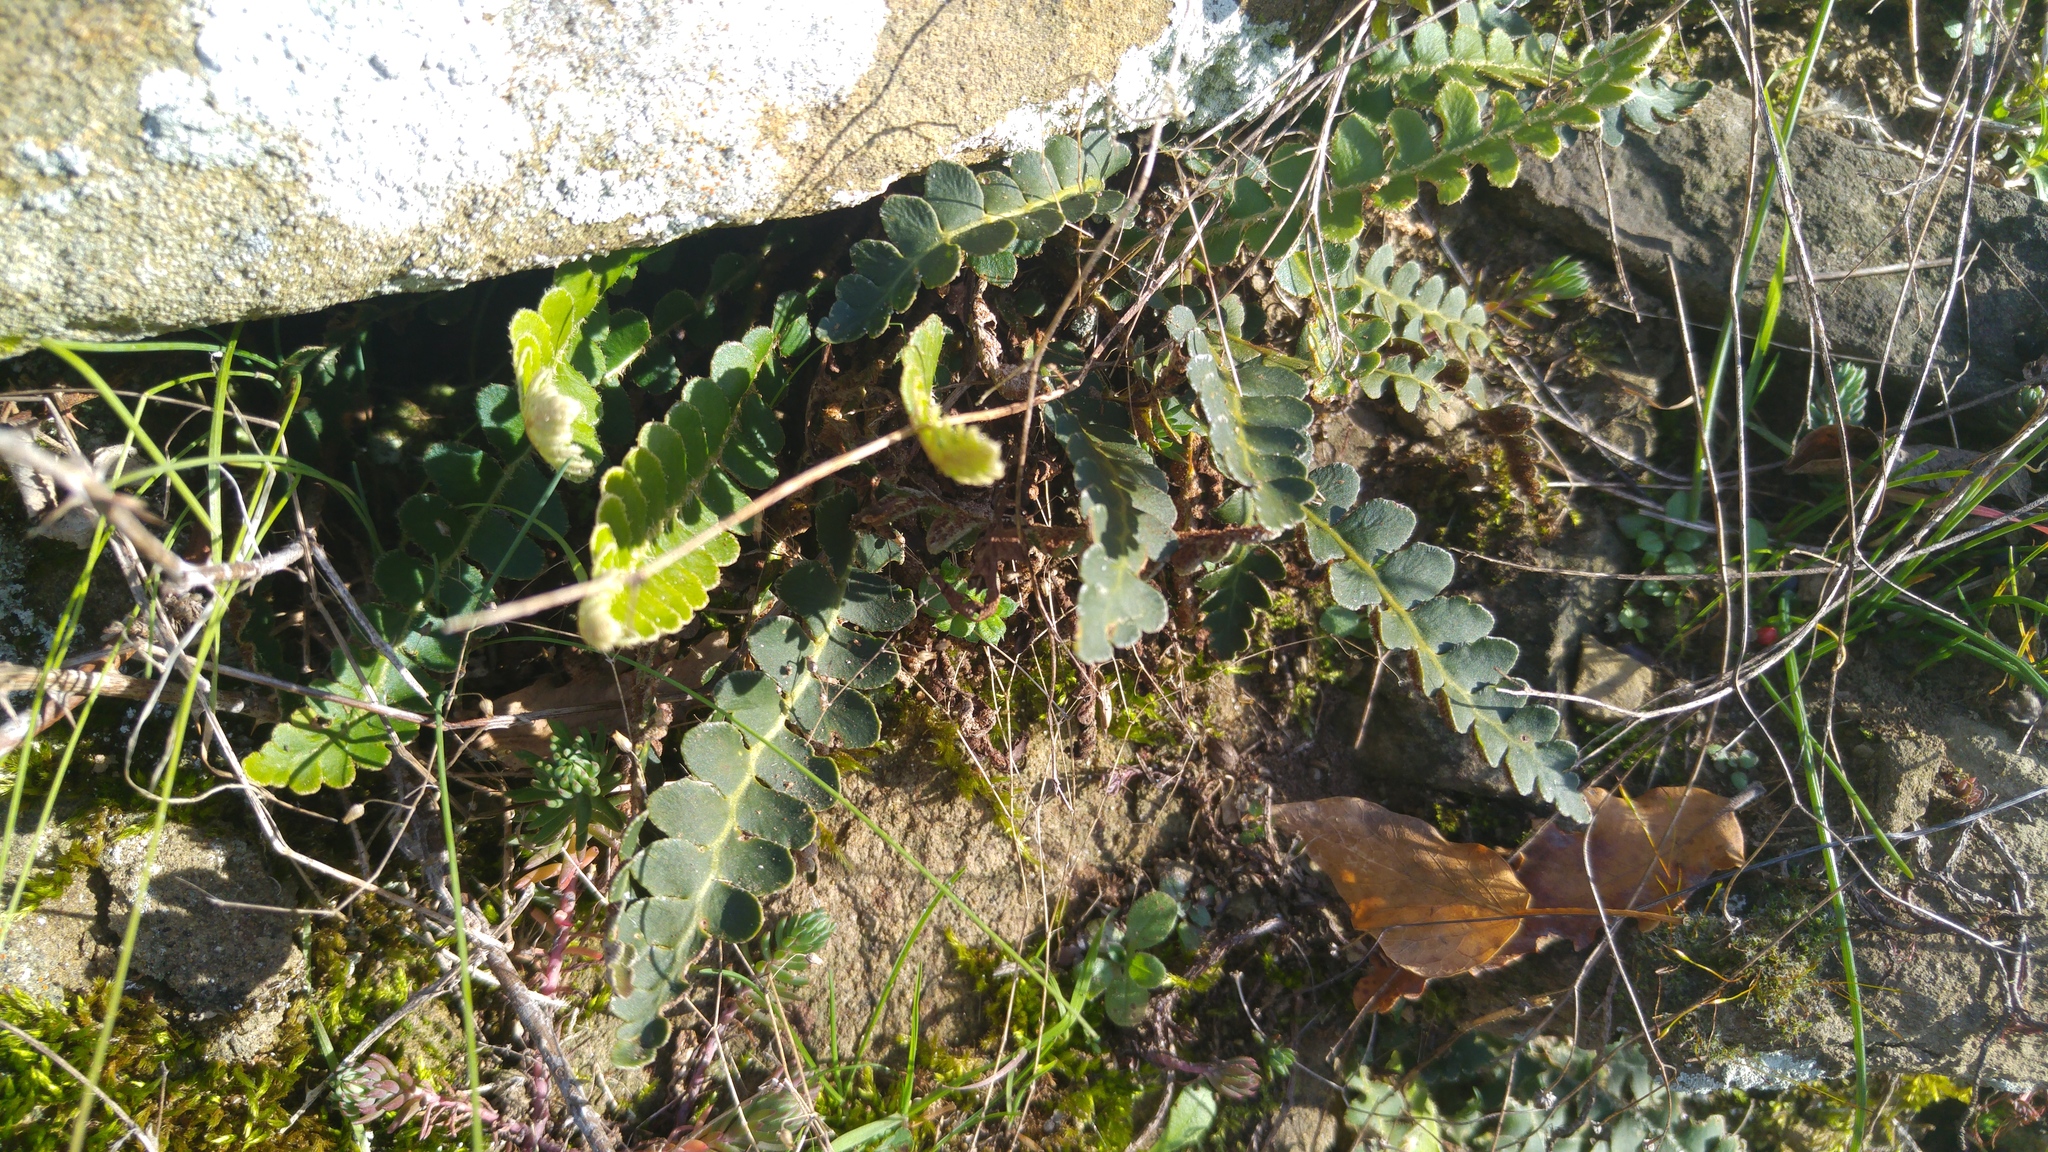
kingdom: Plantae
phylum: Tracheophyta
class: Polypodiopsida
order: Polypodiales
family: Aspleniaceae
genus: Asplenium
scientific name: Asplenium ceterach
